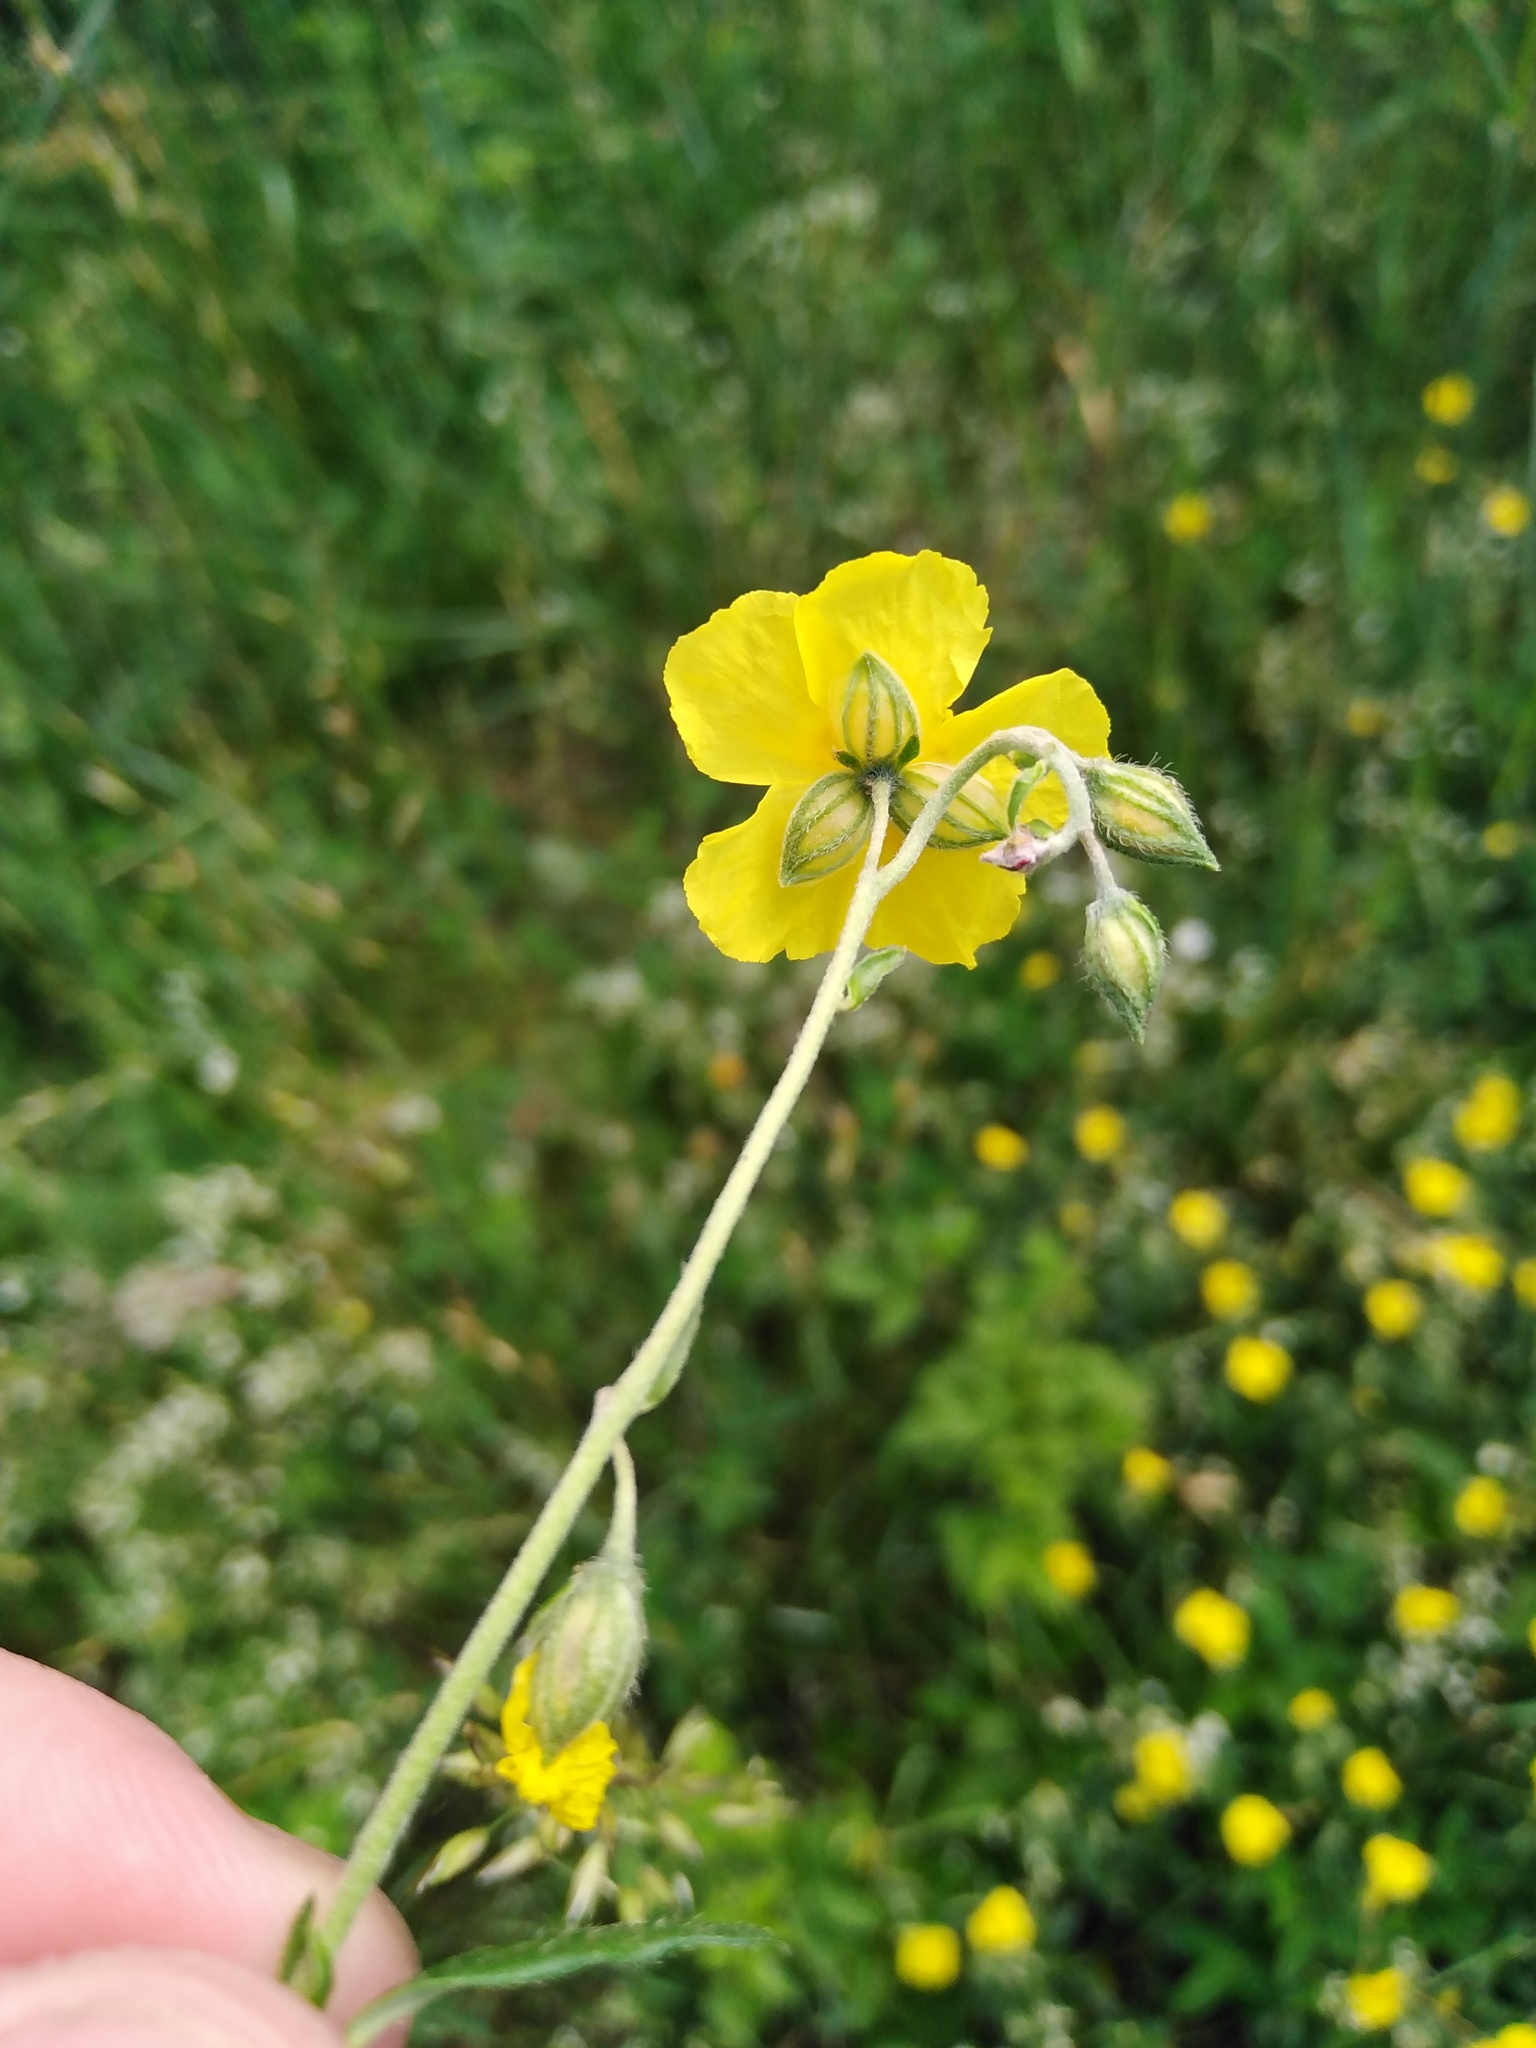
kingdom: Plantae
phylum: Tracheophyta
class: Magnoliopsida
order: Malvales
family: Cistaceae
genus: Helianthemum
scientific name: Helianthemum nummularium
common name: Common rock-rose
